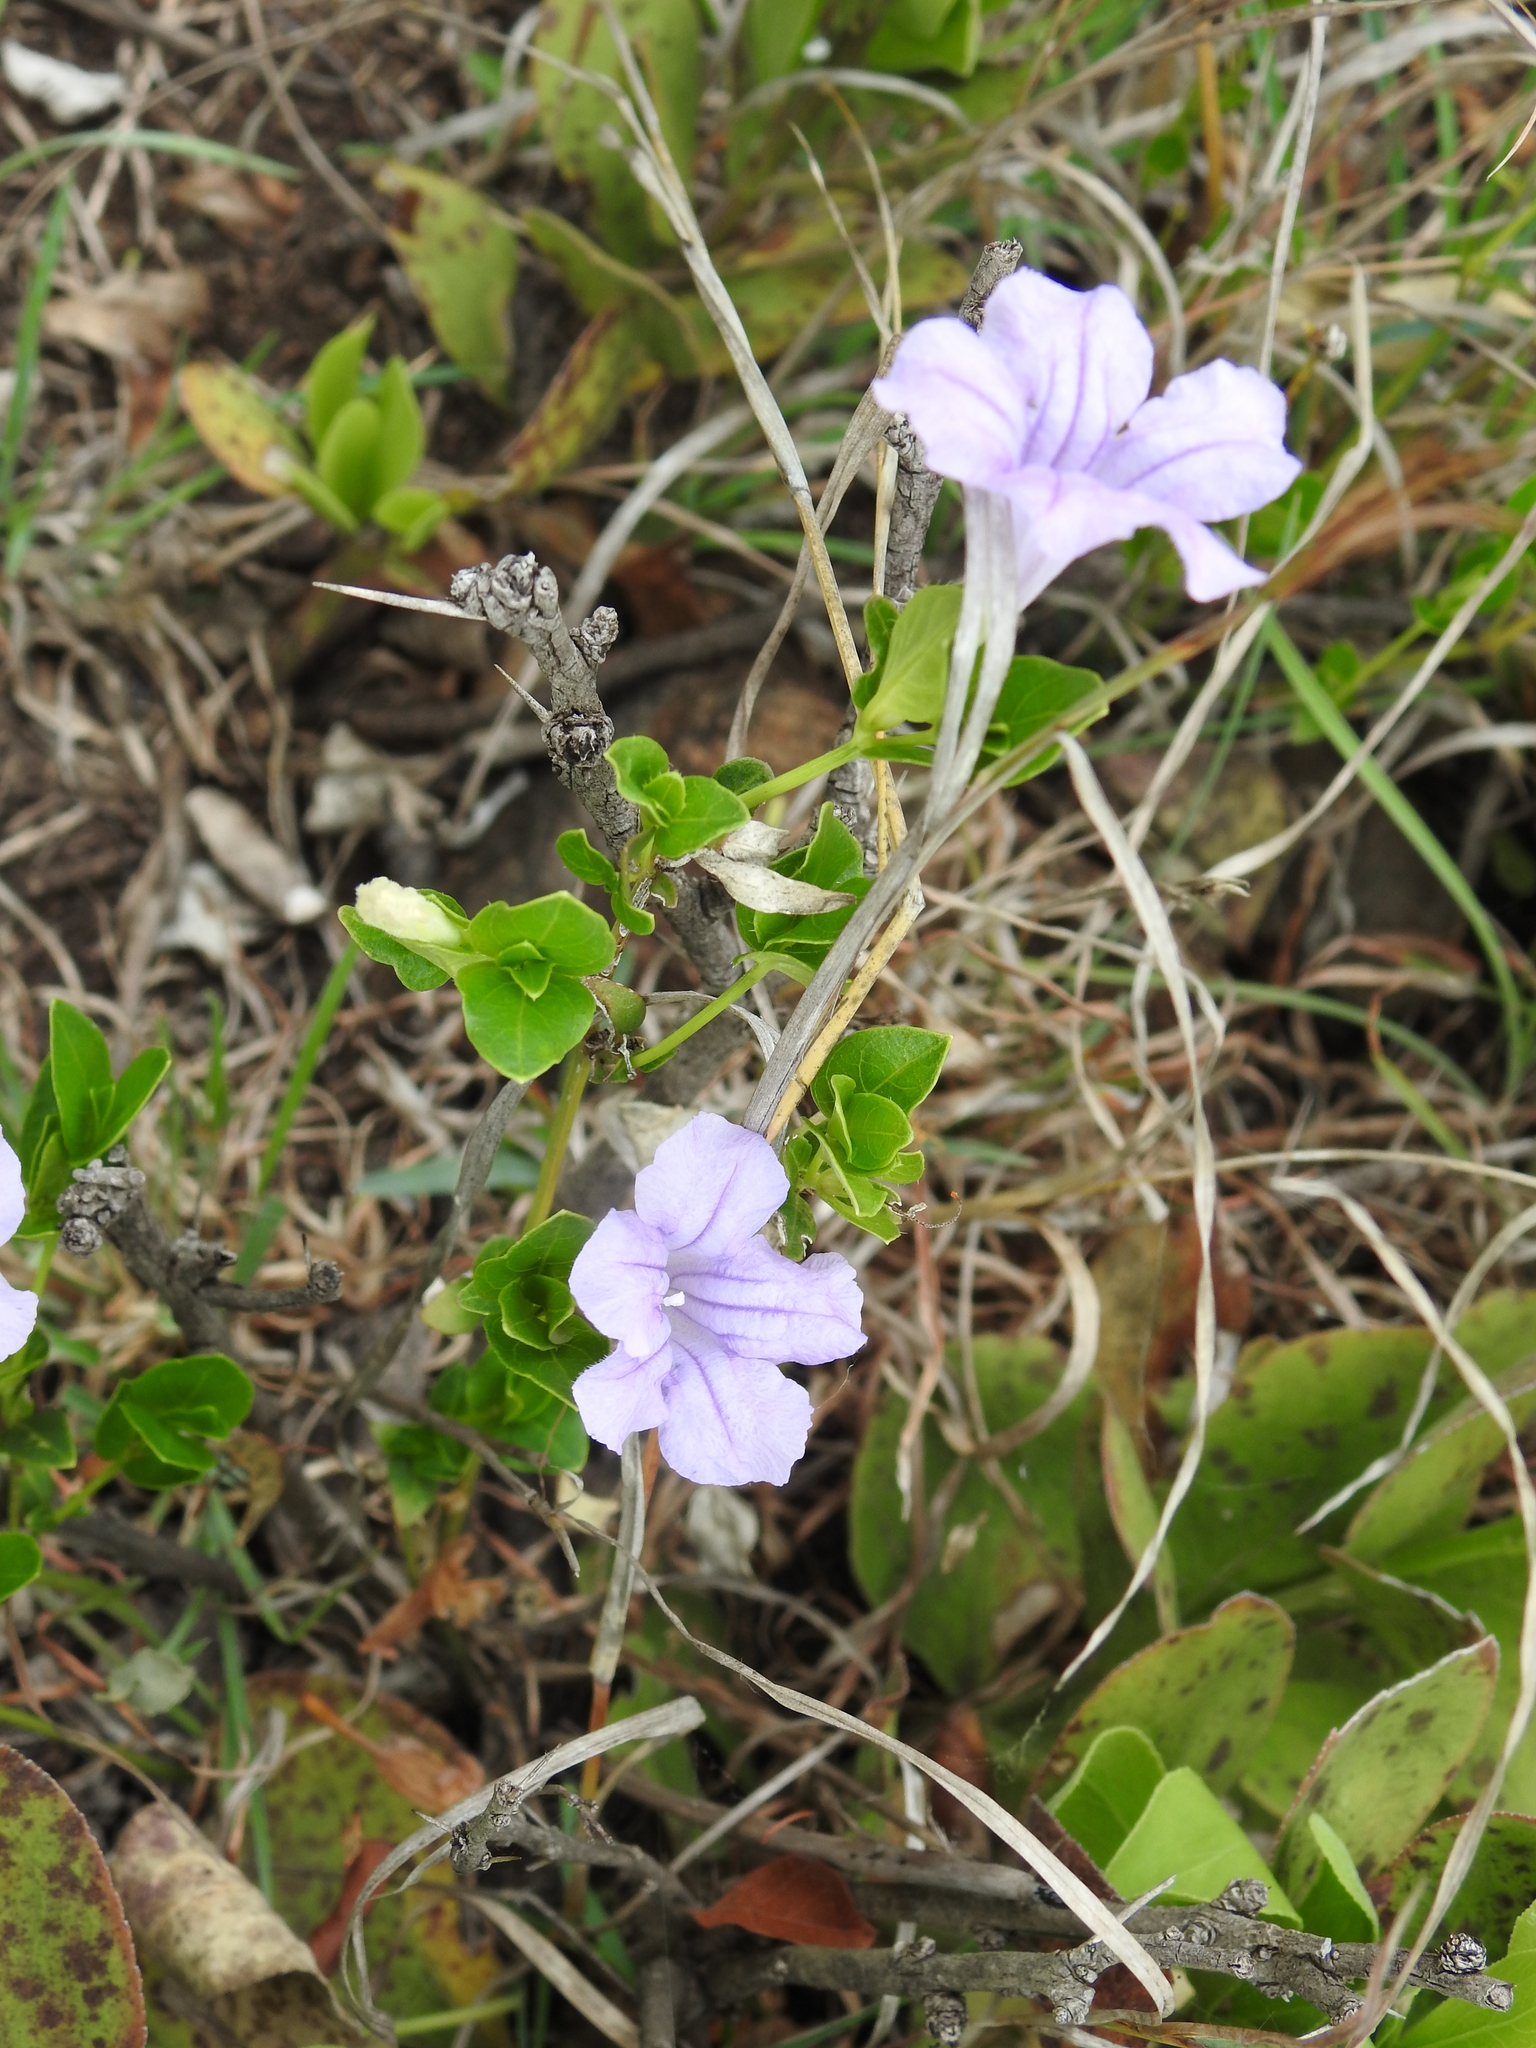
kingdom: Plantae
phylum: Tracheophyta
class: Magnoliopsida
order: Lamiales
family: Acanthaceae
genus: Ruellia
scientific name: Ruellia cordata
